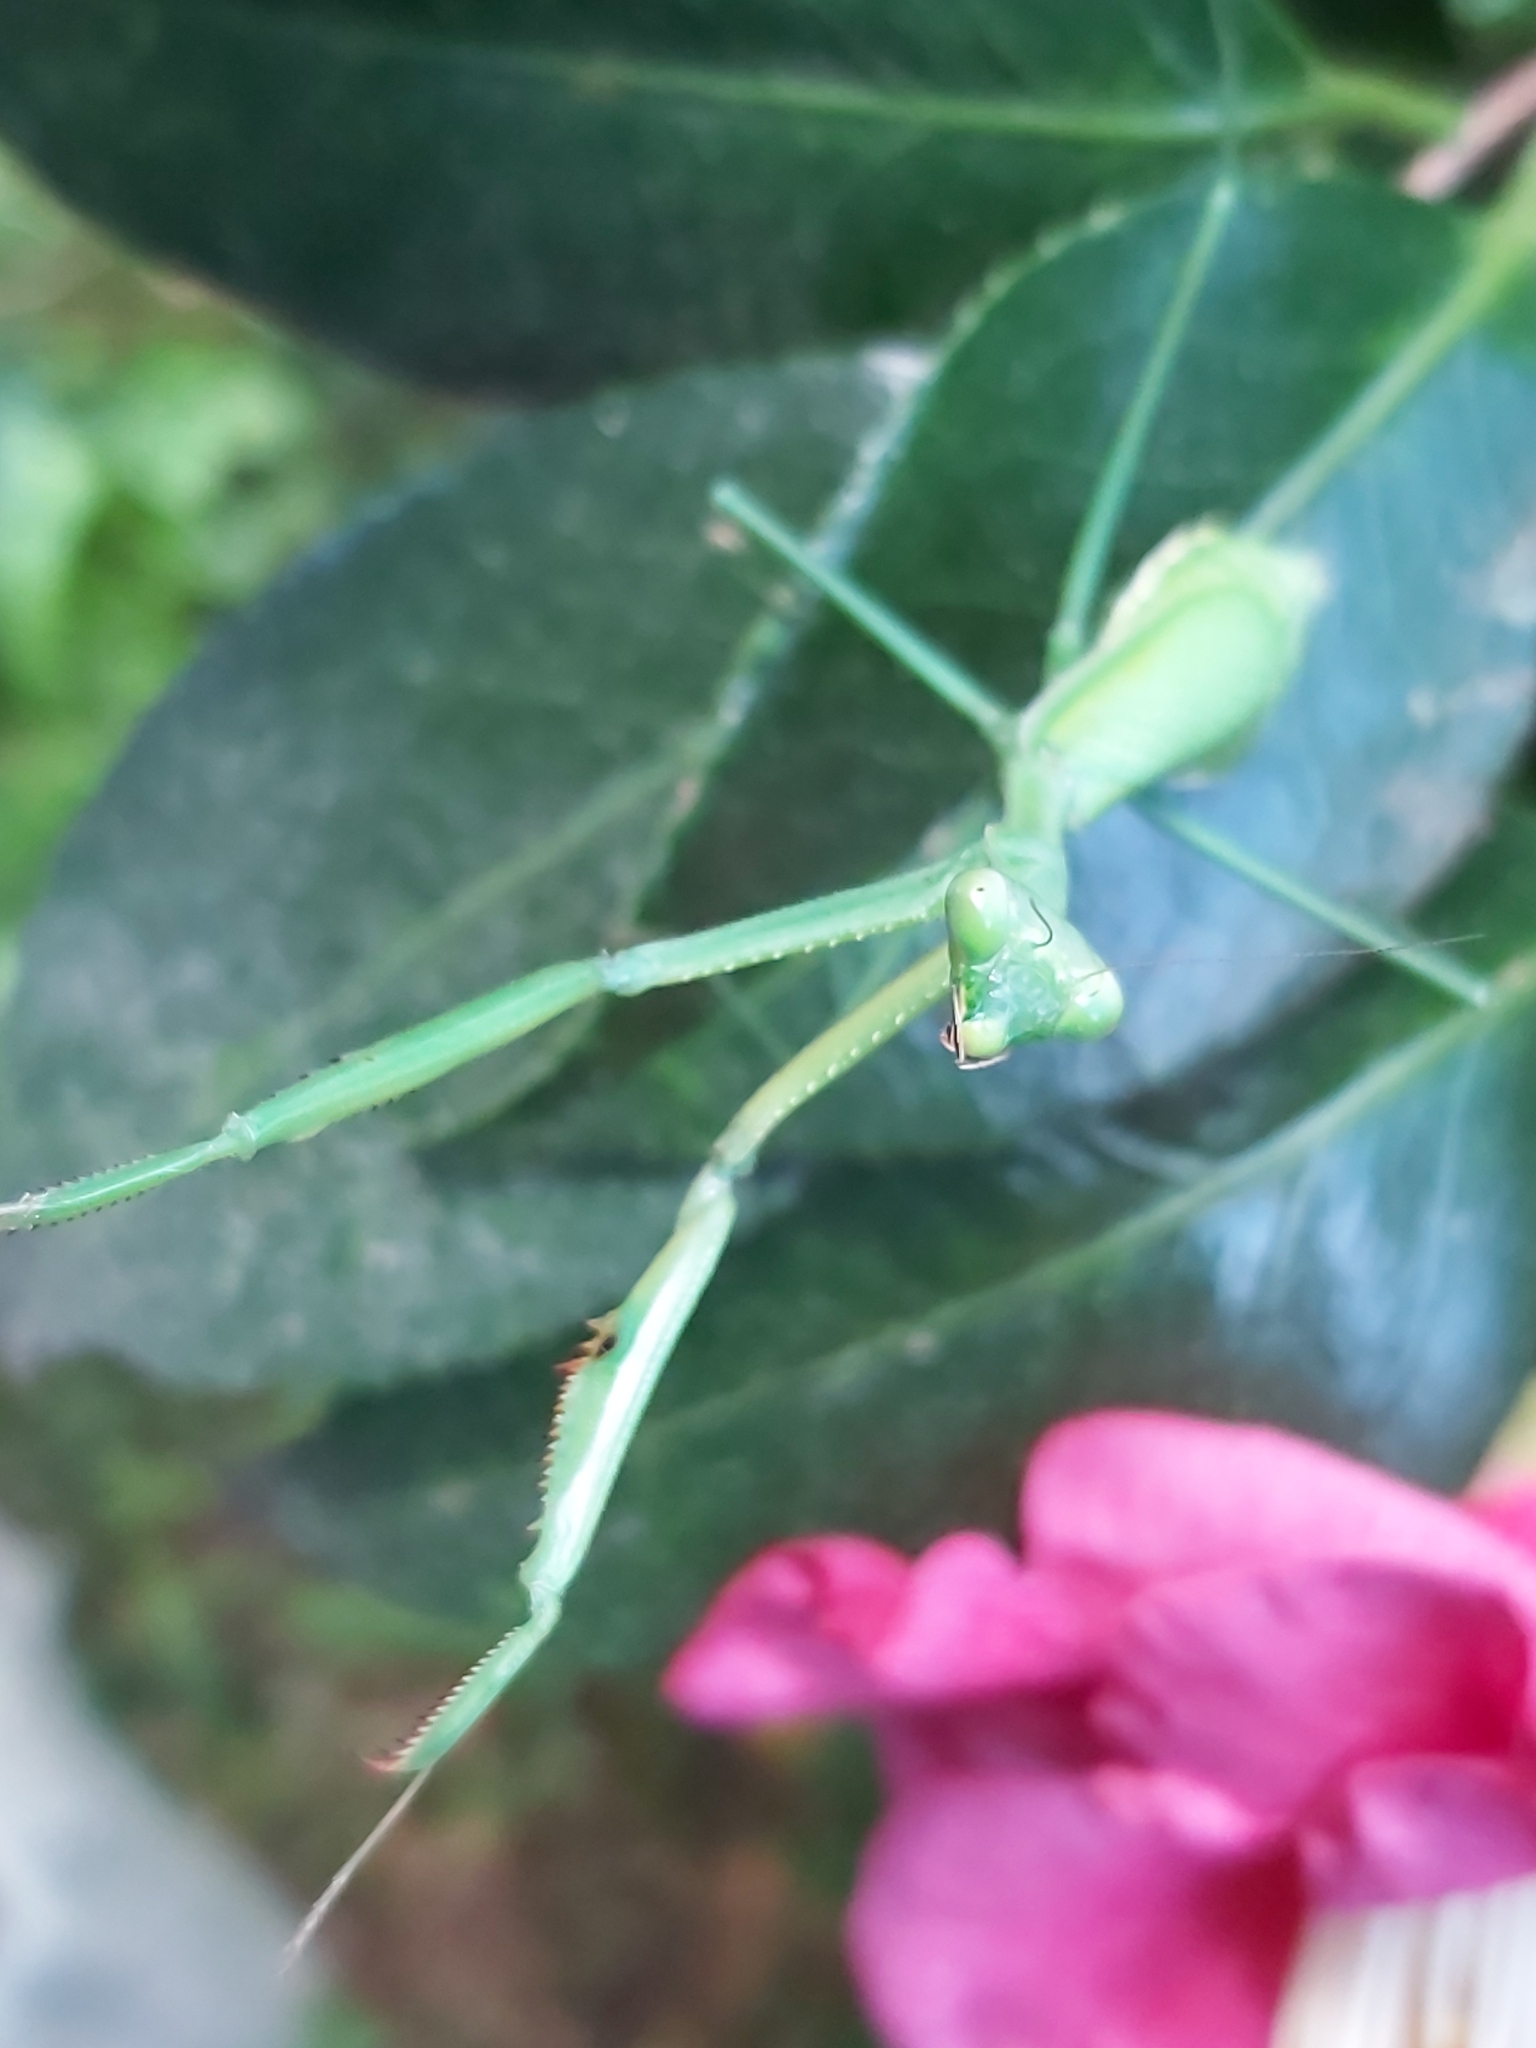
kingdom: Animalia
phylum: Arthropoda
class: Insecta
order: Mantodea
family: Mantidae
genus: Pseudomantis
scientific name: Pseudomantis albofimbriata
